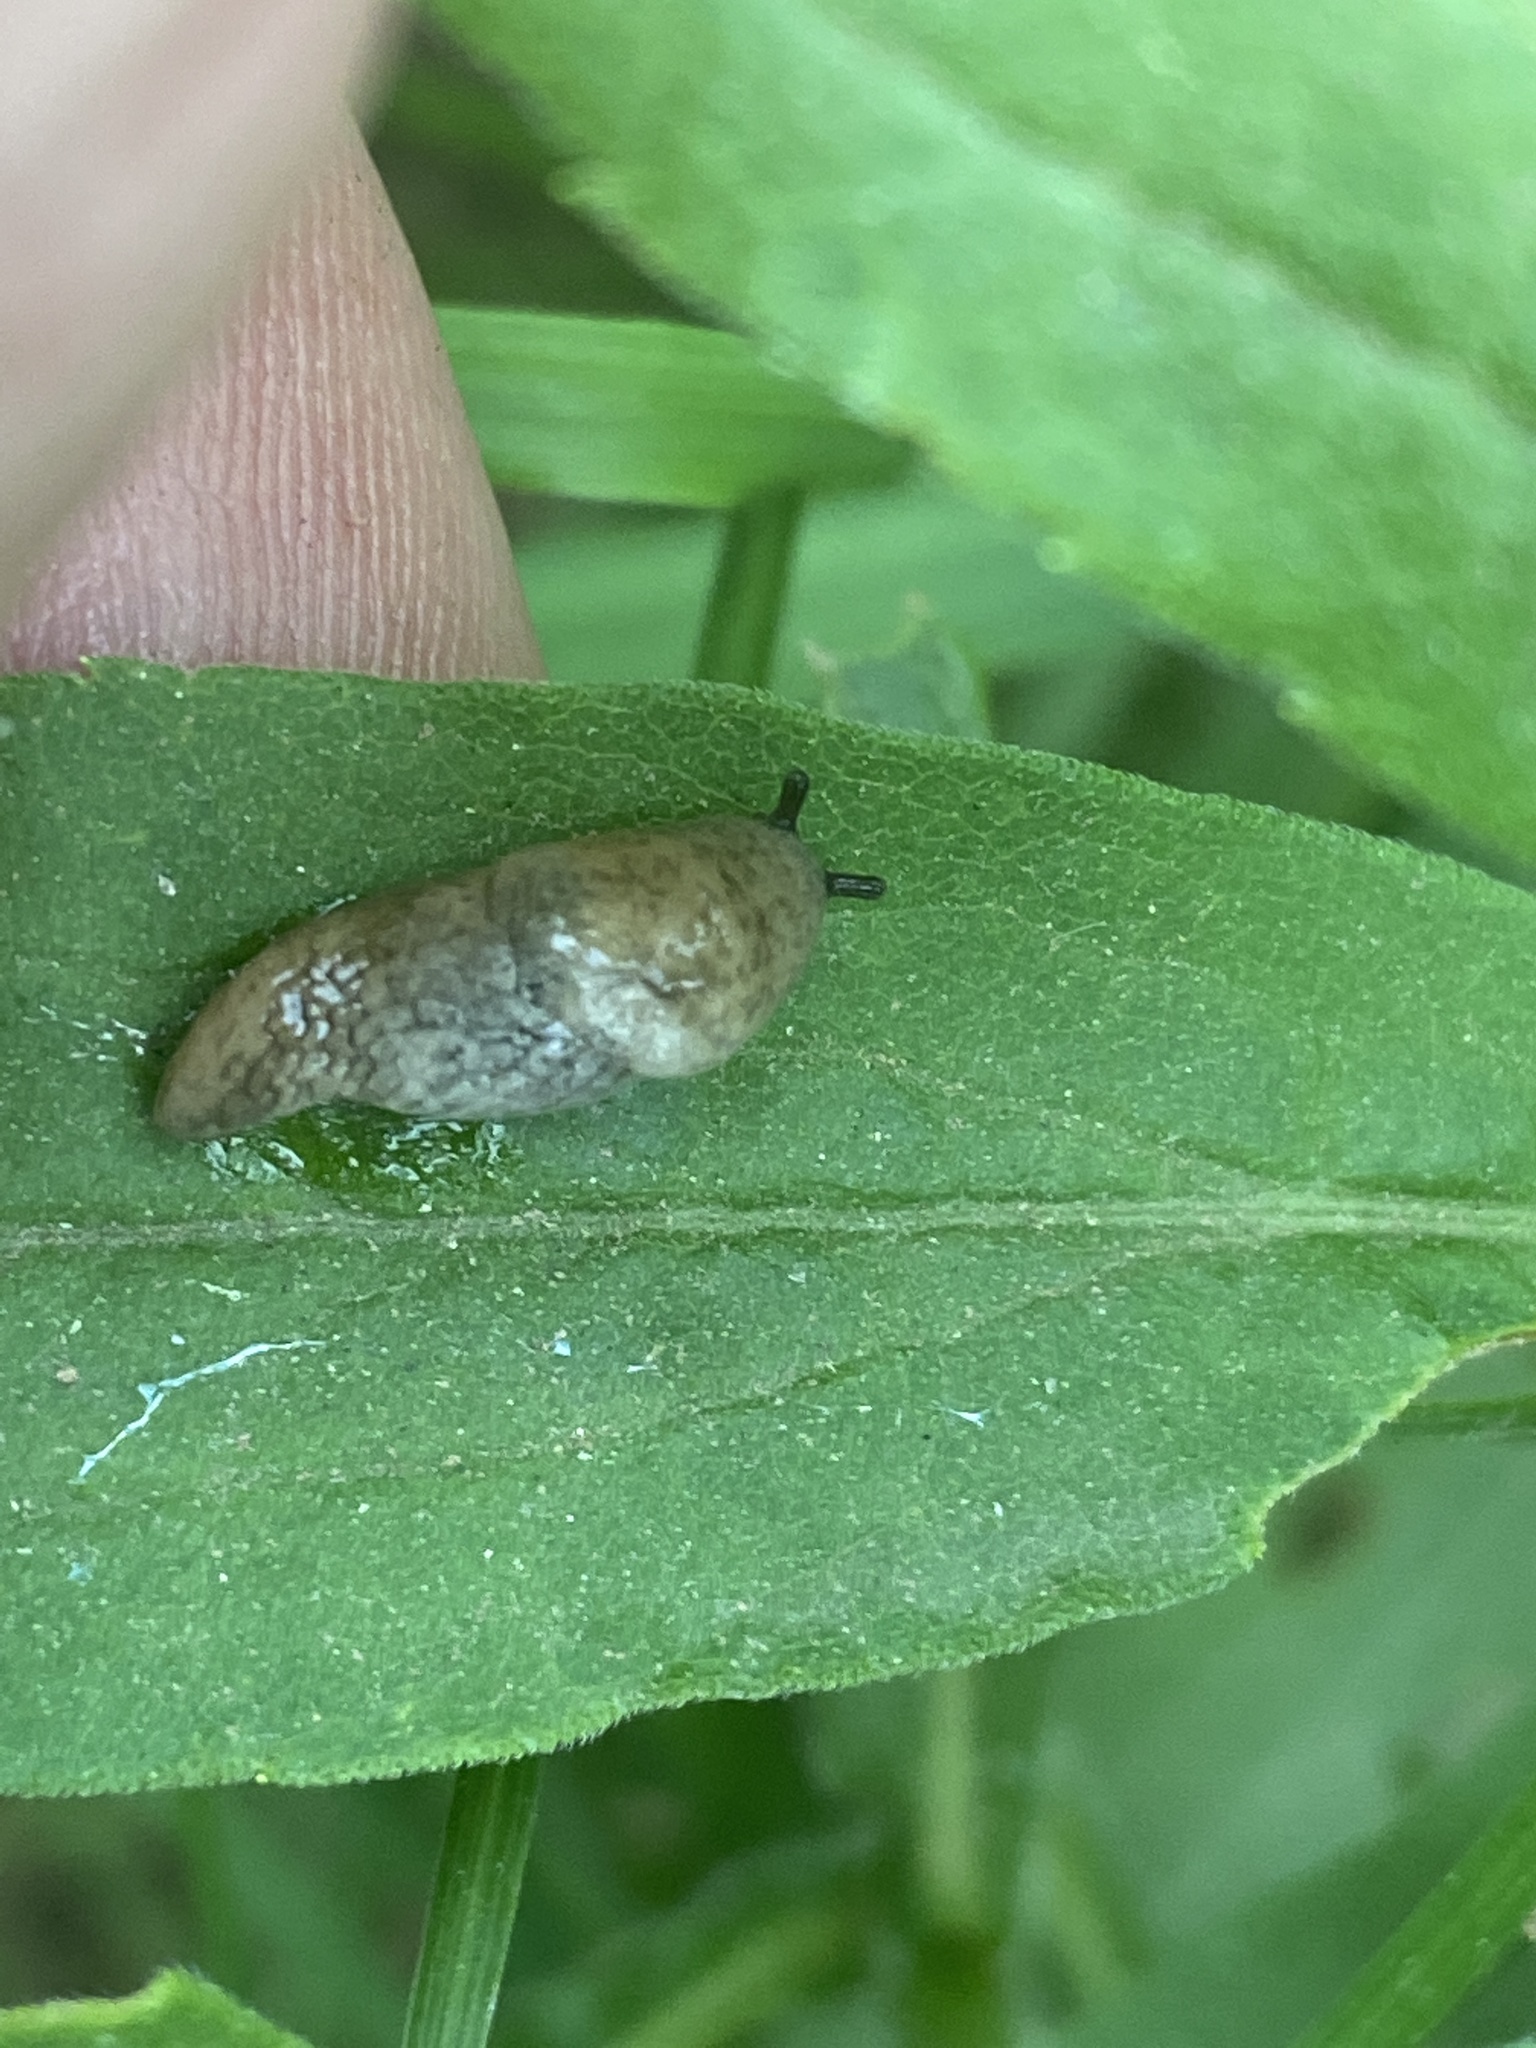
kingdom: Animalia
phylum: Mollusca
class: Gastropoda
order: Stylommatophora
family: Agriolimacidae
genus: Deroceras
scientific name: Deroceras reticulatum
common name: Gray field slug
